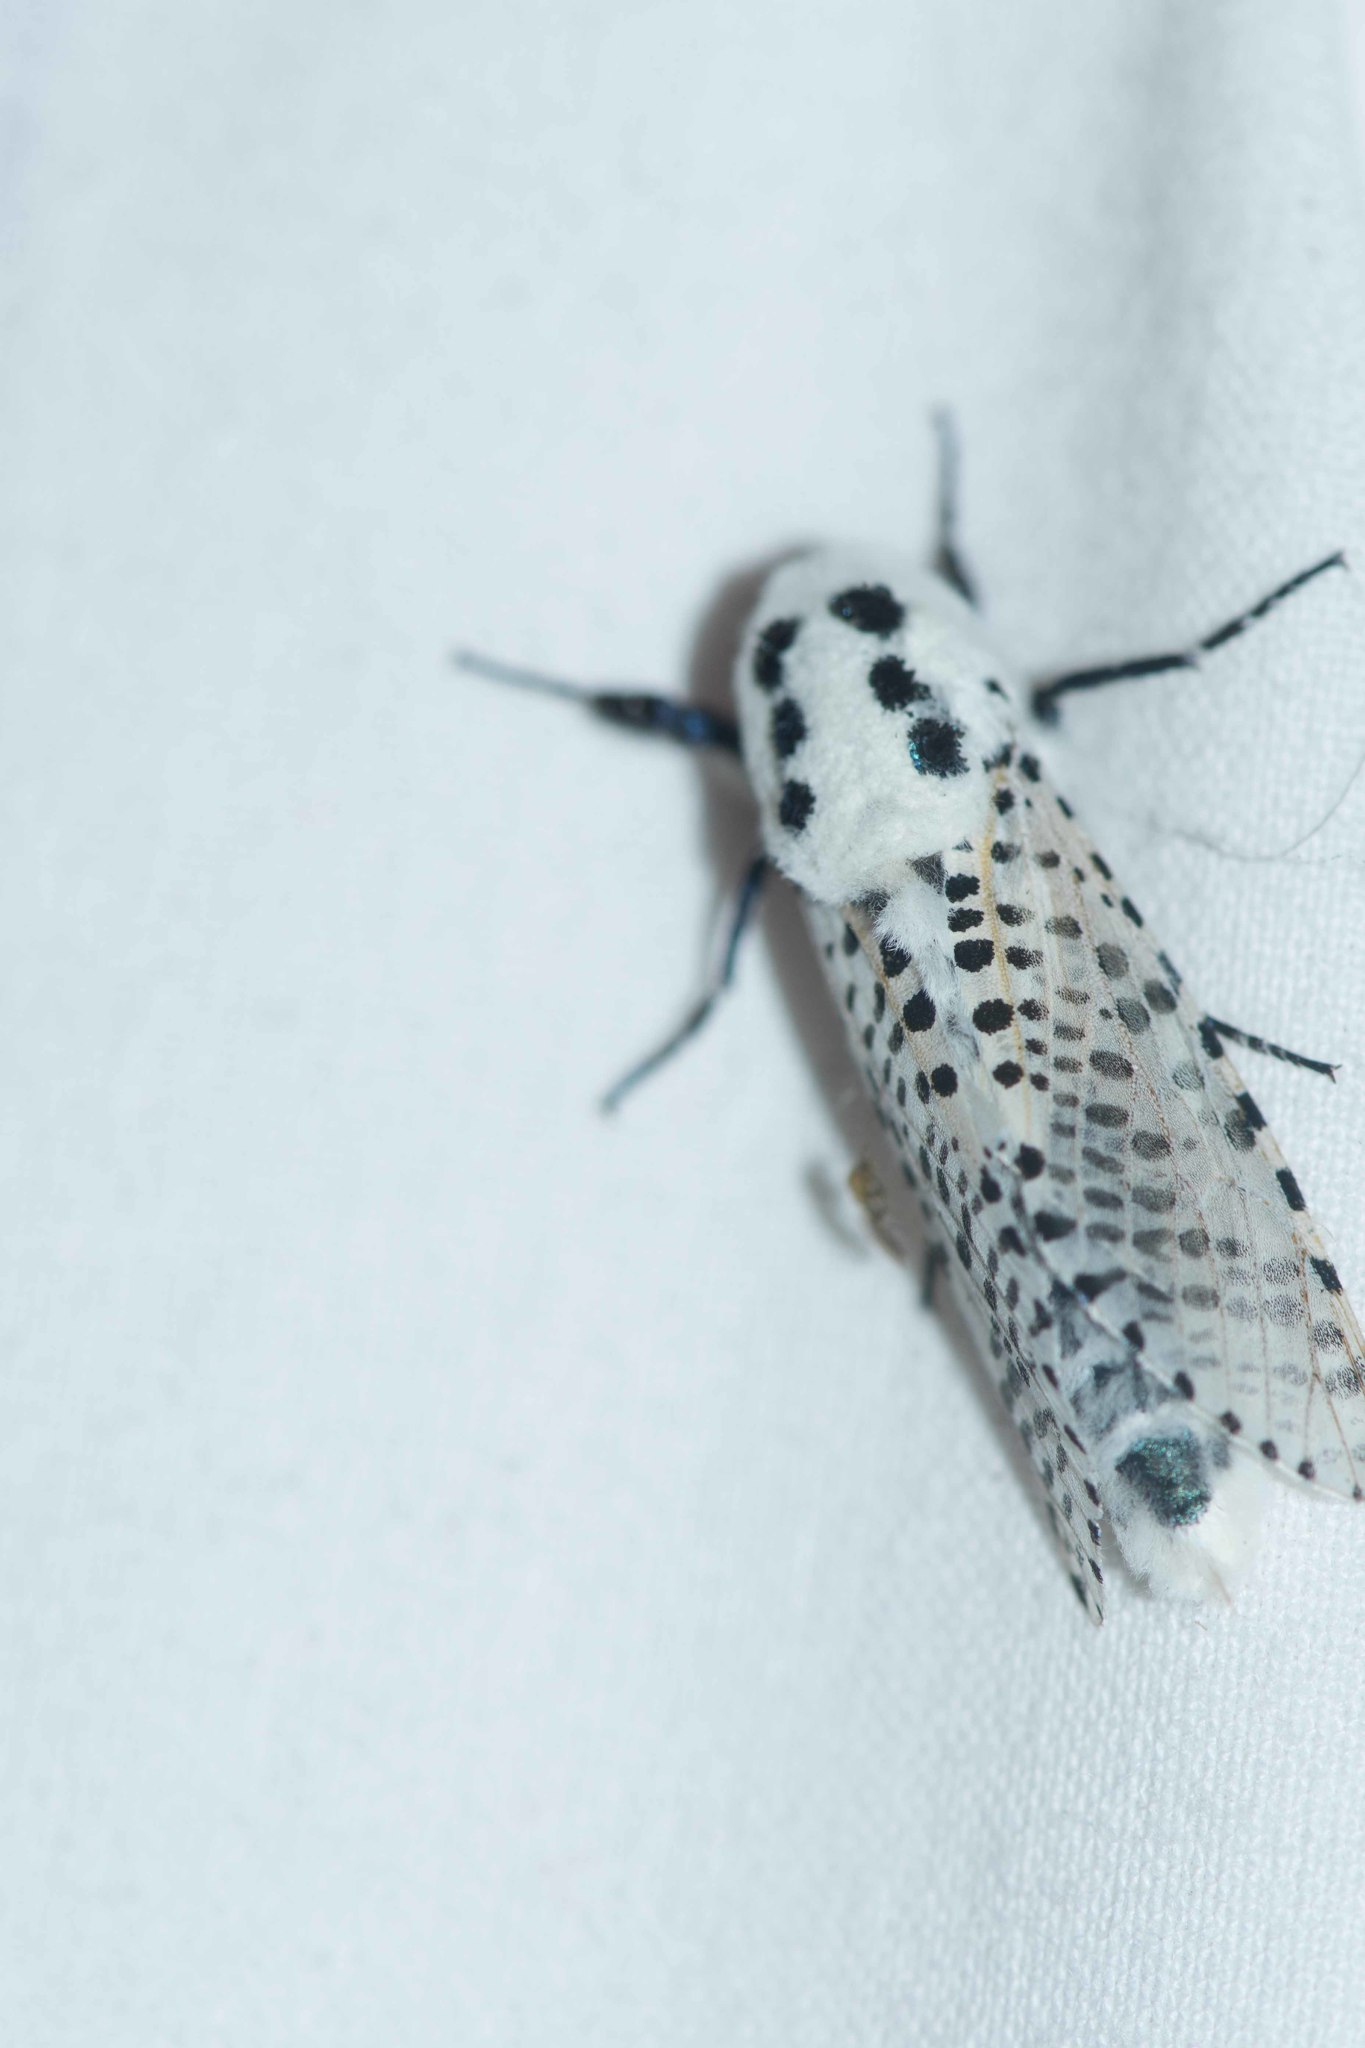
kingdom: Animalia
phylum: Arthropoda
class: Insecta
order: Lepidoptera
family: Cossidae
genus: Zeuzera
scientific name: Zeuzera pyrina
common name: Leopard moth
